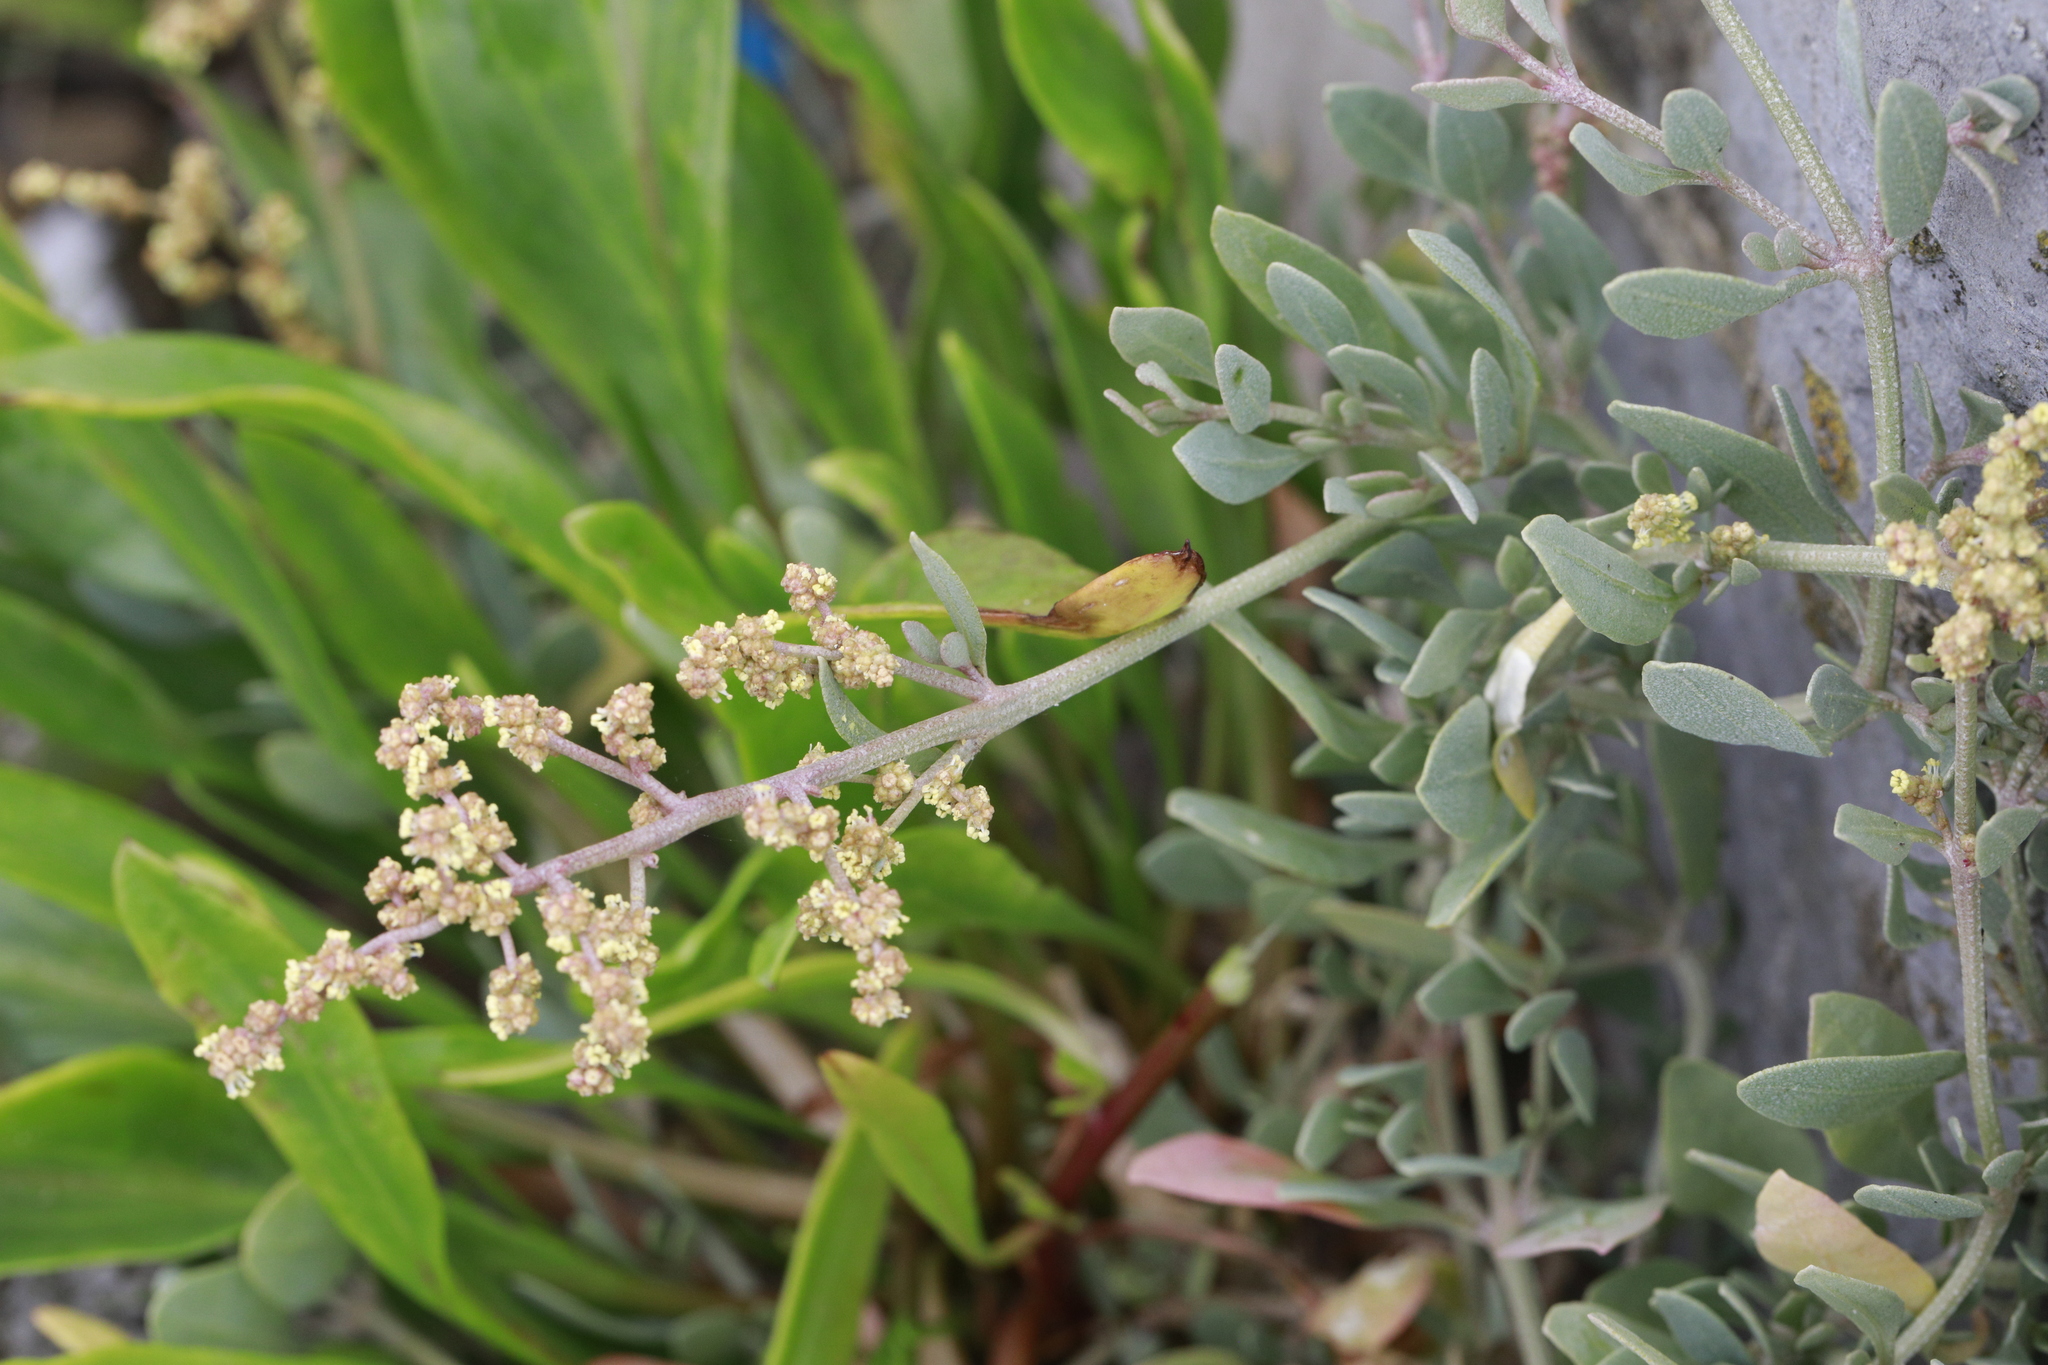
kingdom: Plantae
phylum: Tracheophyta
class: Magnoliopsida
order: Caryophyllales
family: Amaranthaceae
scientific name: Amaranthaceae
